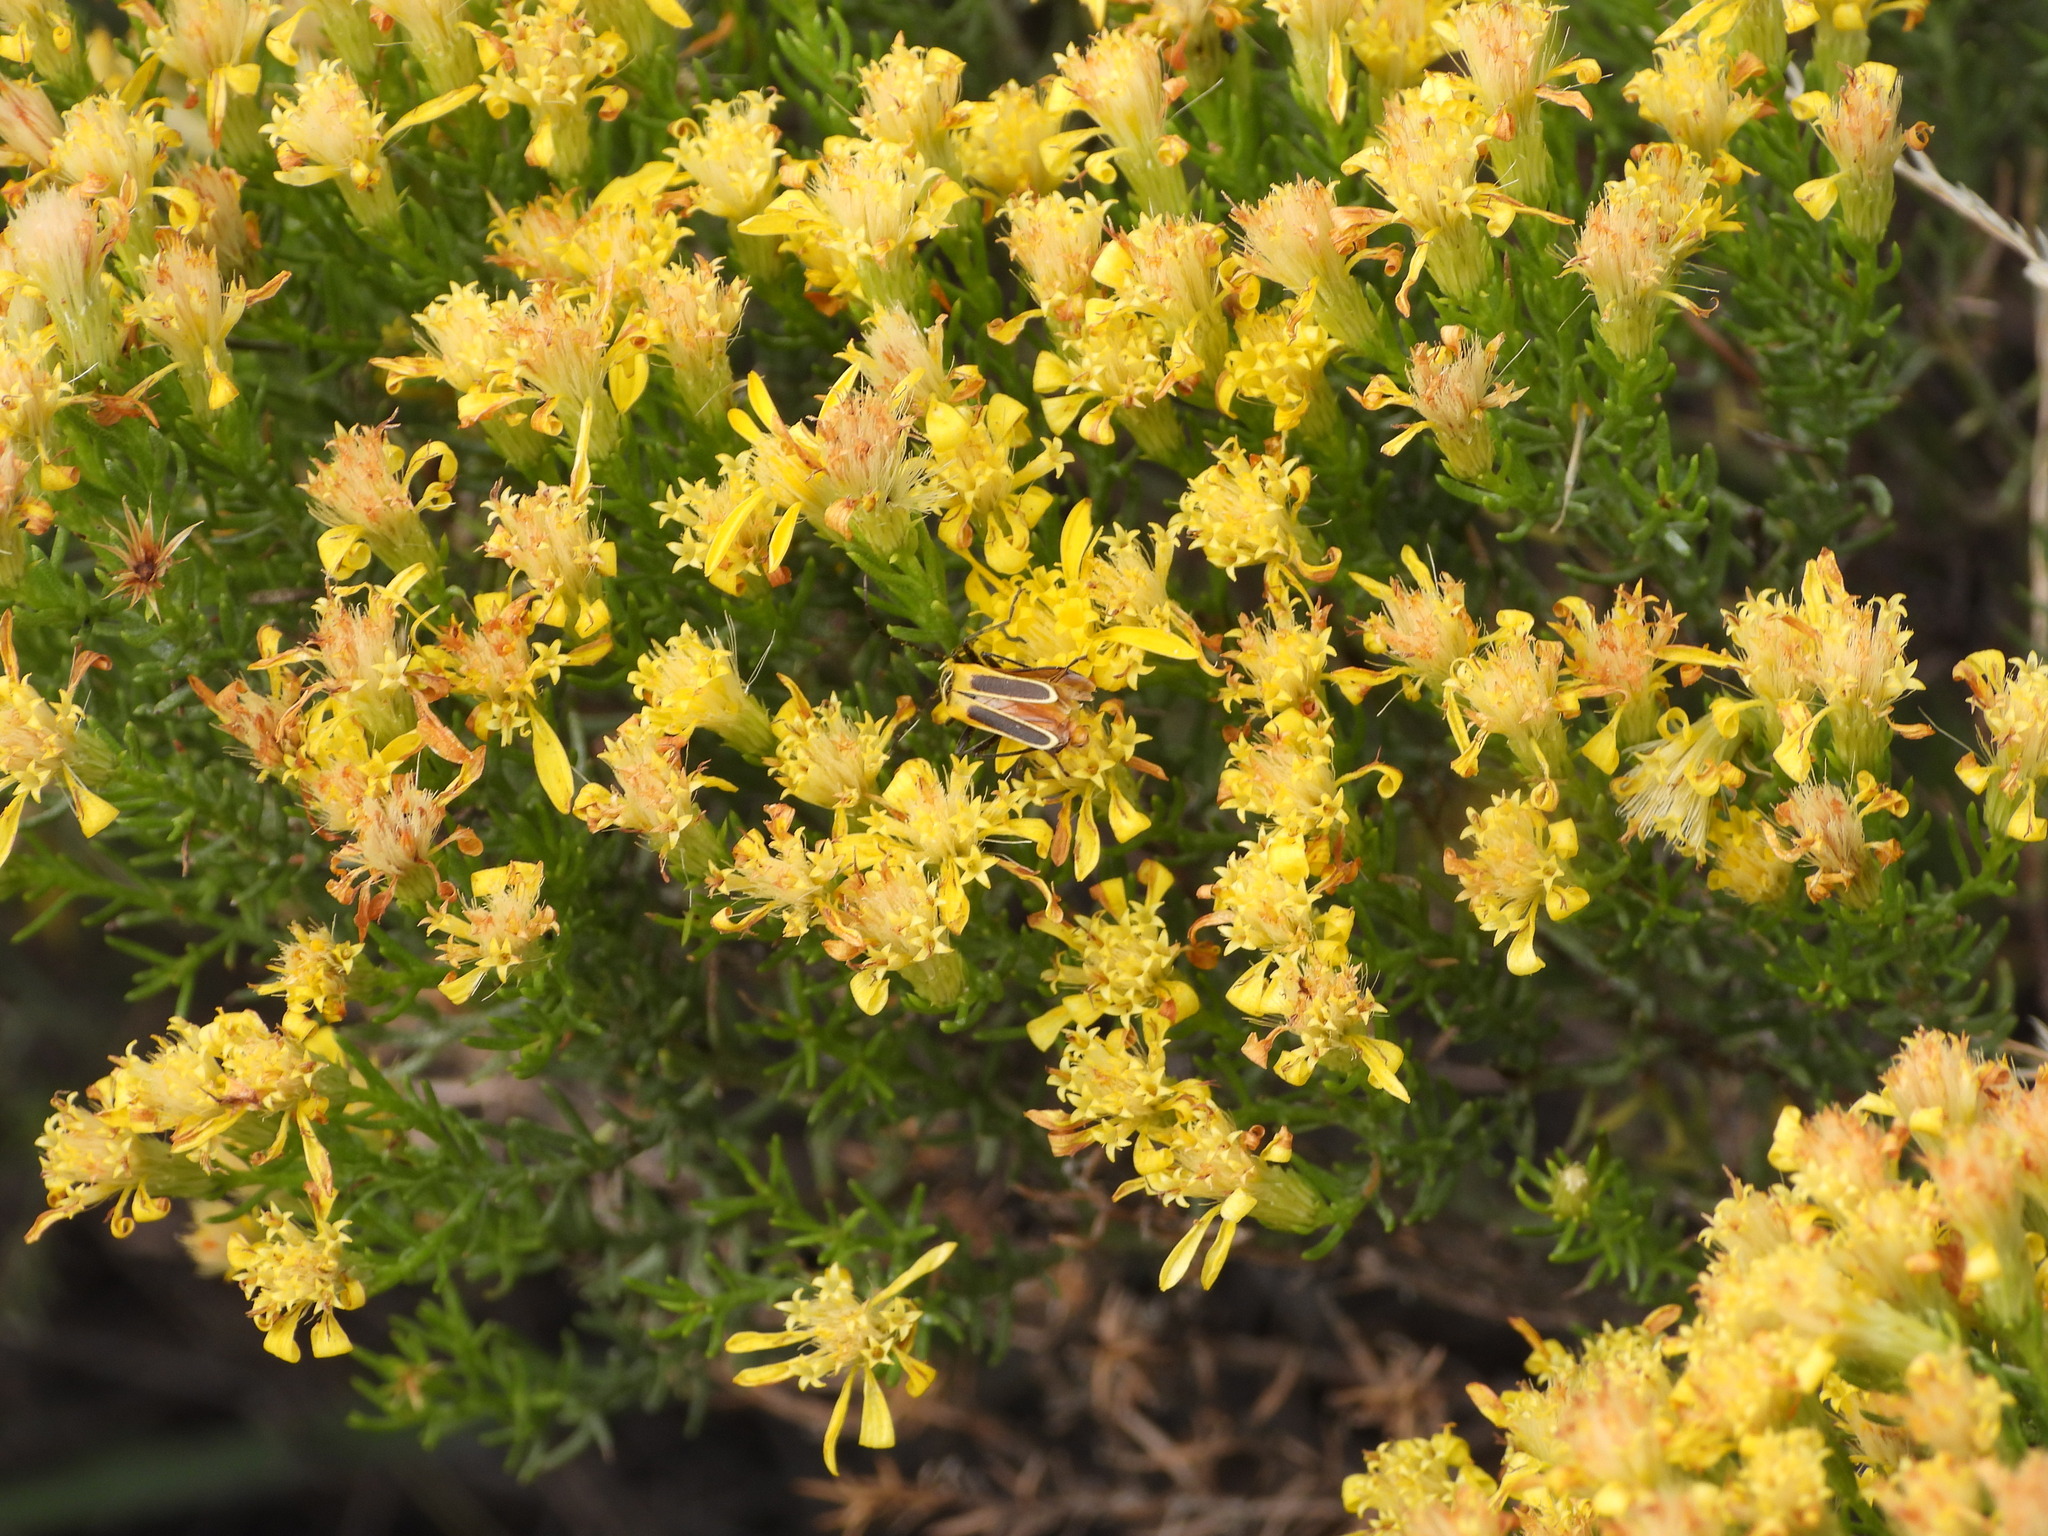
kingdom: Animalia
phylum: Arthropoda
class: Insecta
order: Coleoptera
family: Cantharidae
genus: Chauliognathus
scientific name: Chauliognathus lewisi
